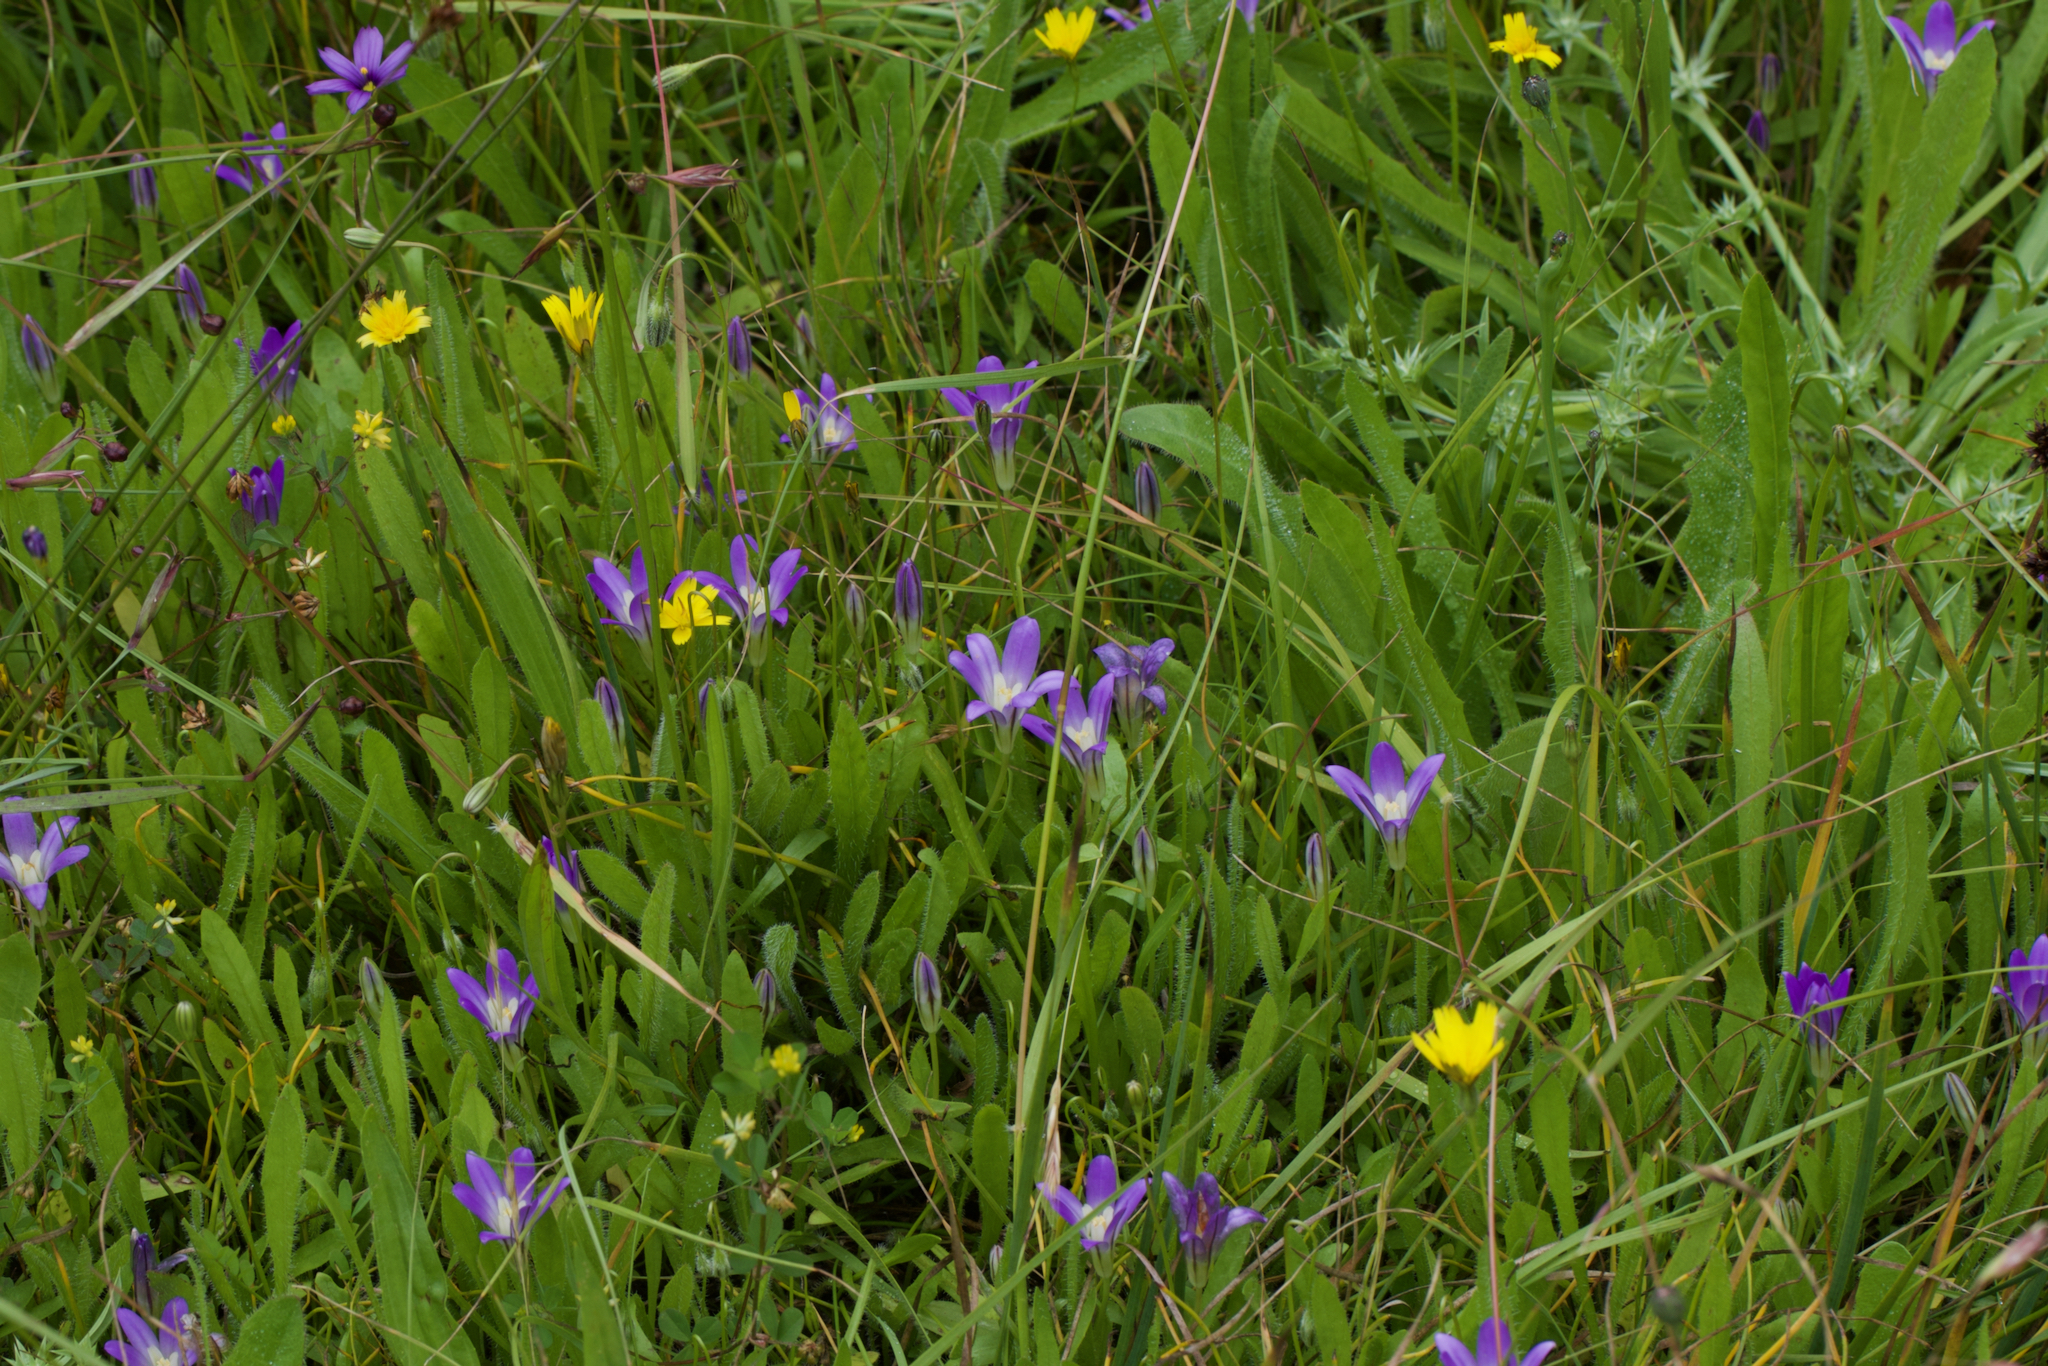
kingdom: Plantae
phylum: Tracheophyta
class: Liliopsida
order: Asparagales
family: Asparagaceae
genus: Brodiaea
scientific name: Brodiaea terrestris
